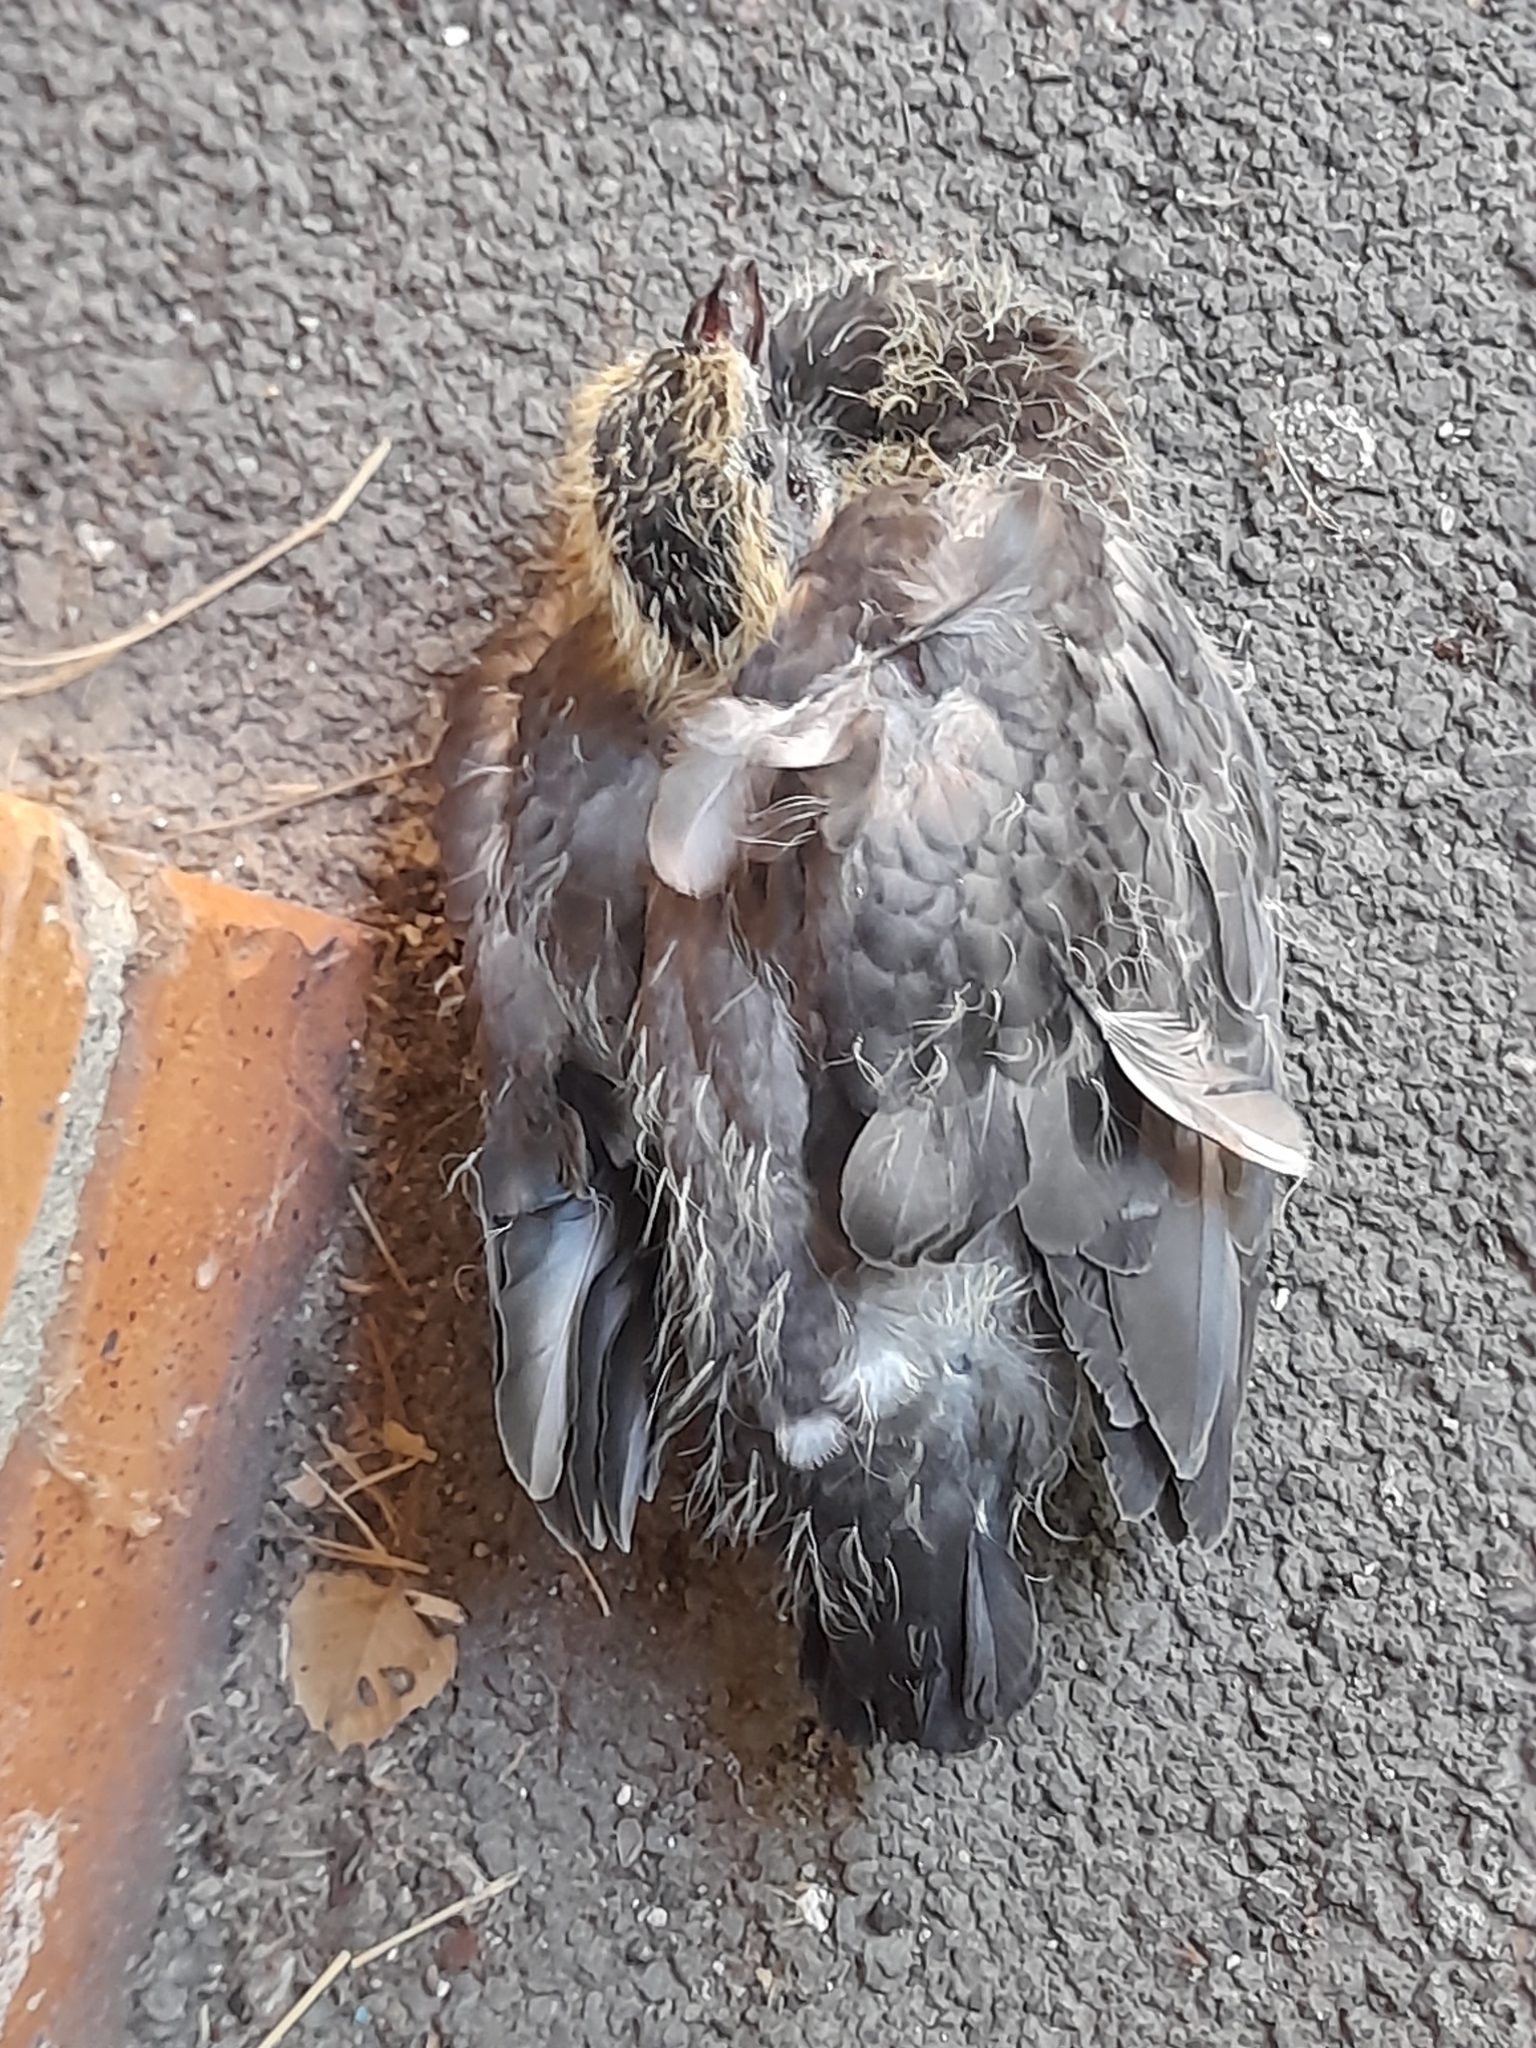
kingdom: Animalia
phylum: Chordata
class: Aves
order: Columbiformes
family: Columbidae
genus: Columba
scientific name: Columba palumbus
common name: Common wood pigeon
